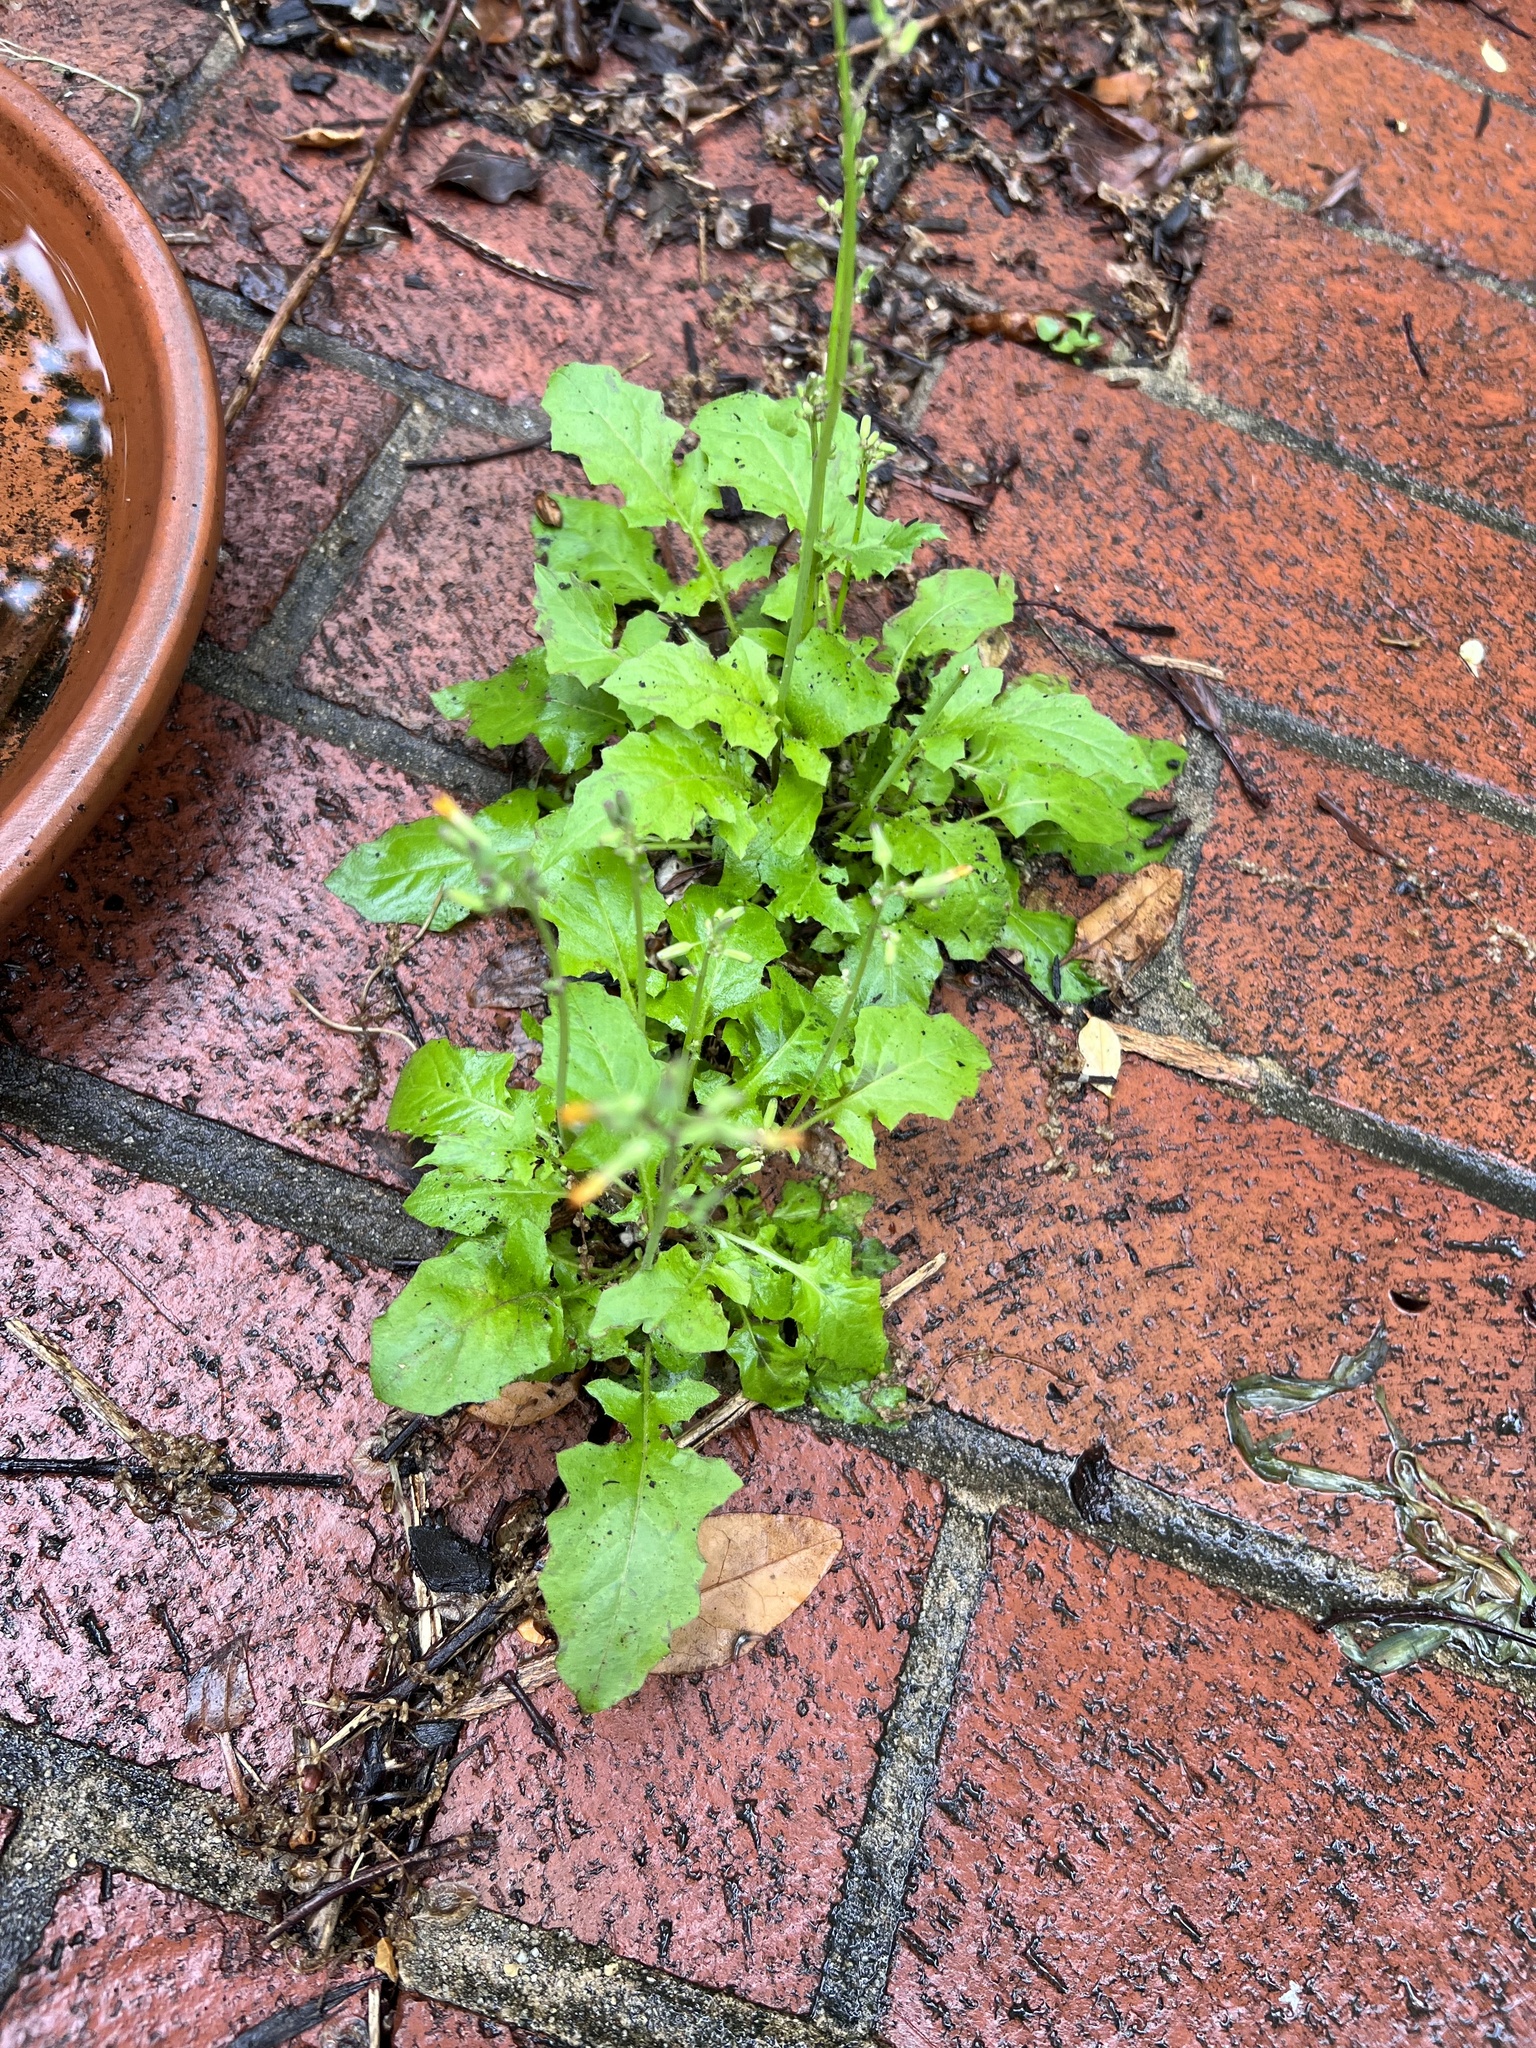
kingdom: Plantae
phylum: Tracheophyta
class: Magnoliopsida
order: Asterales
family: Asteraceae
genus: Youngia
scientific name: Youngia japonica
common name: Oriental false hawksbeard
